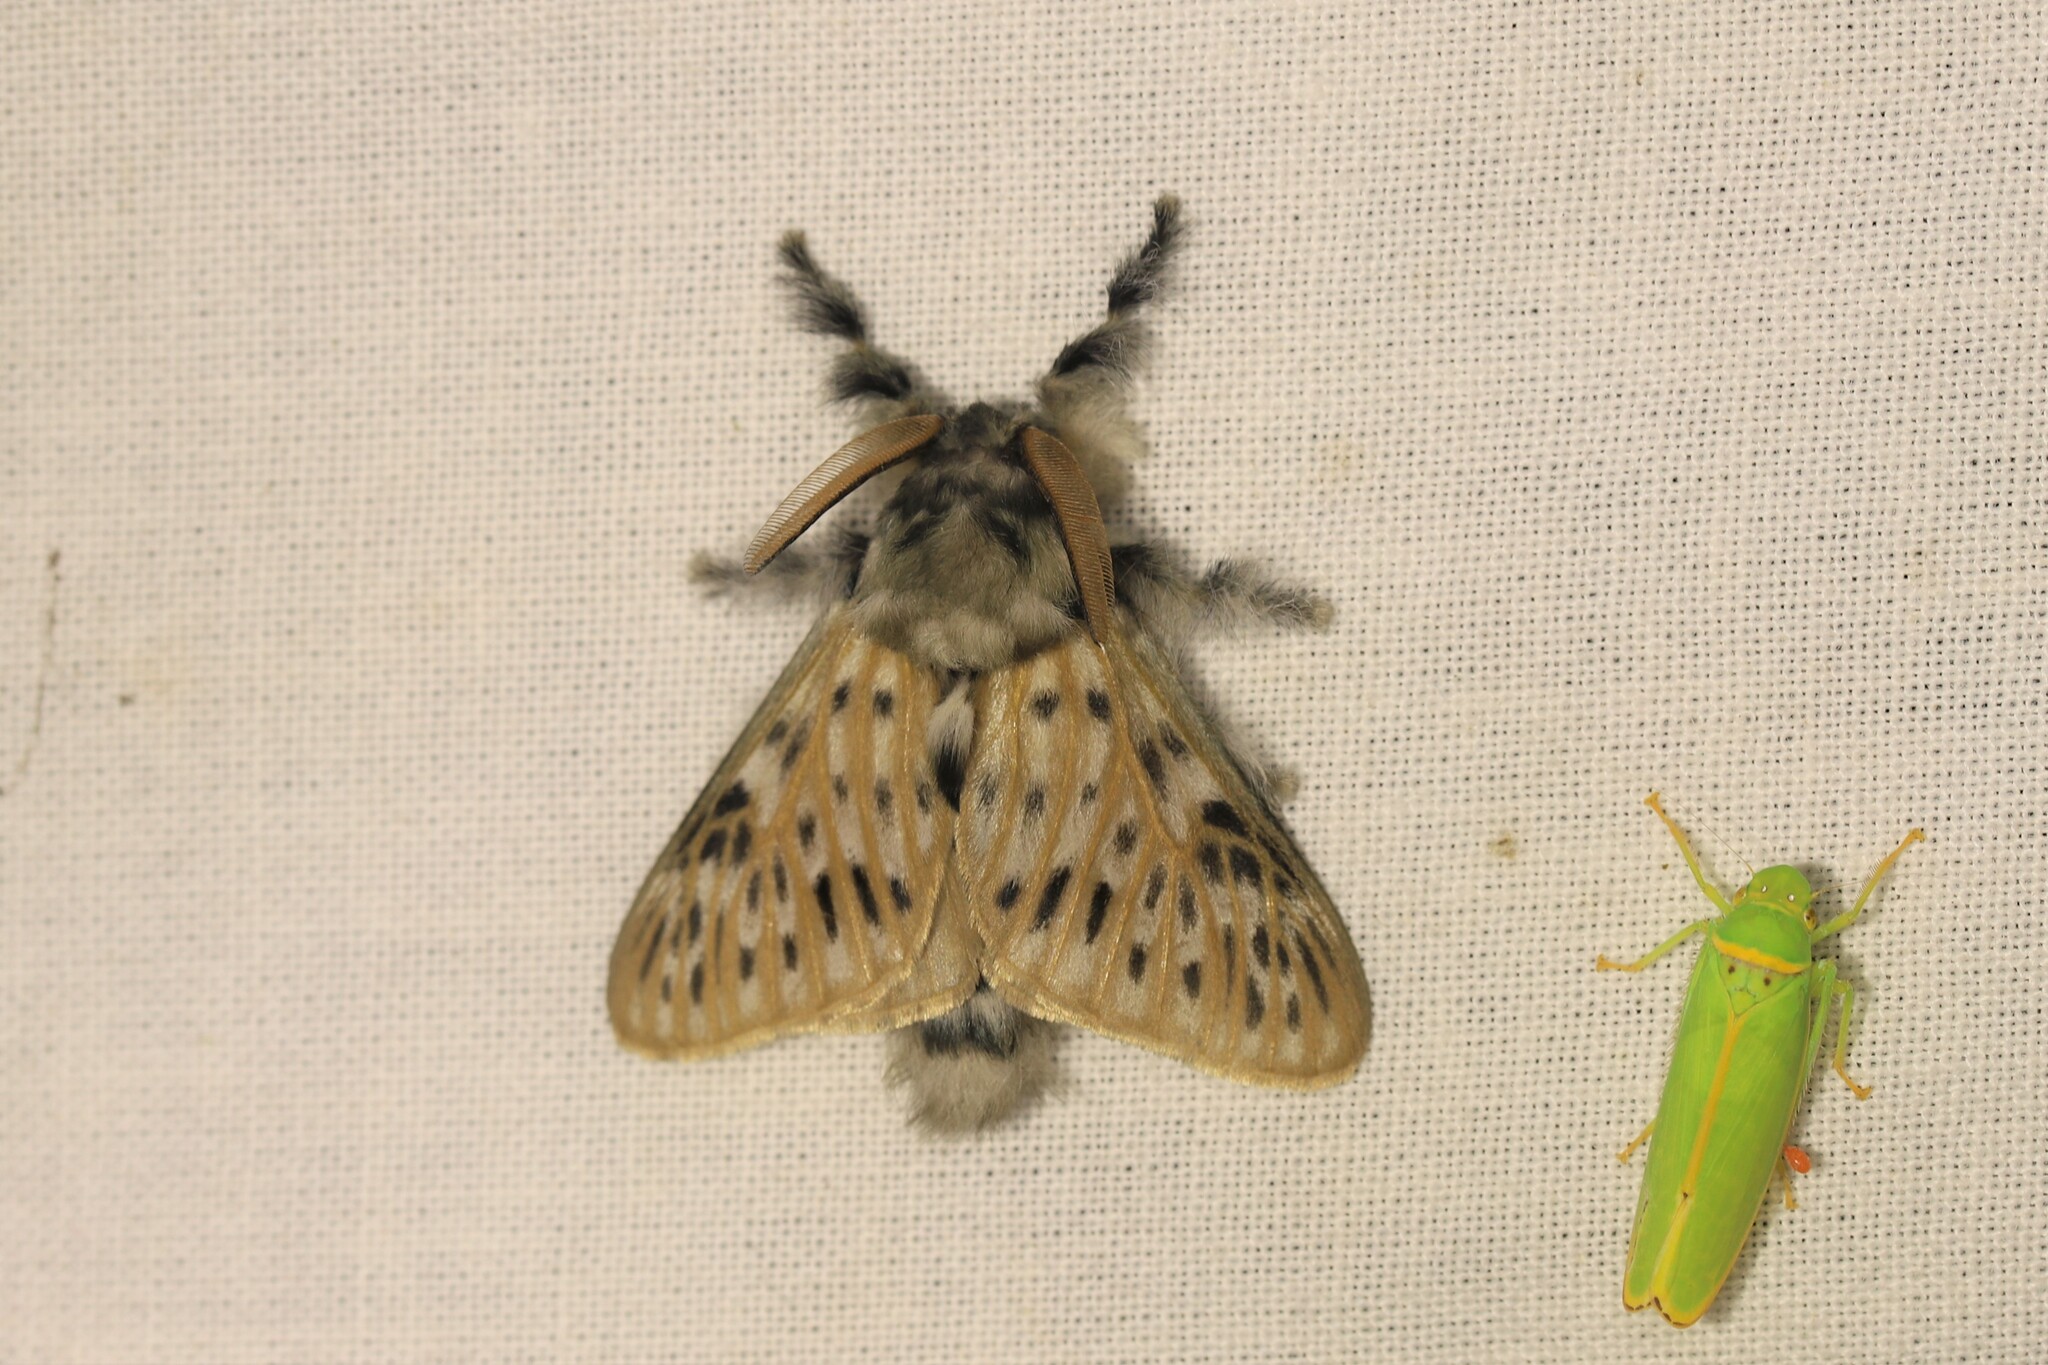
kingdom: Animalia
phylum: Arthropoda
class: Insecta
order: Lepidoptera
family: Megalopygidae
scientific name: Megalopygidae
